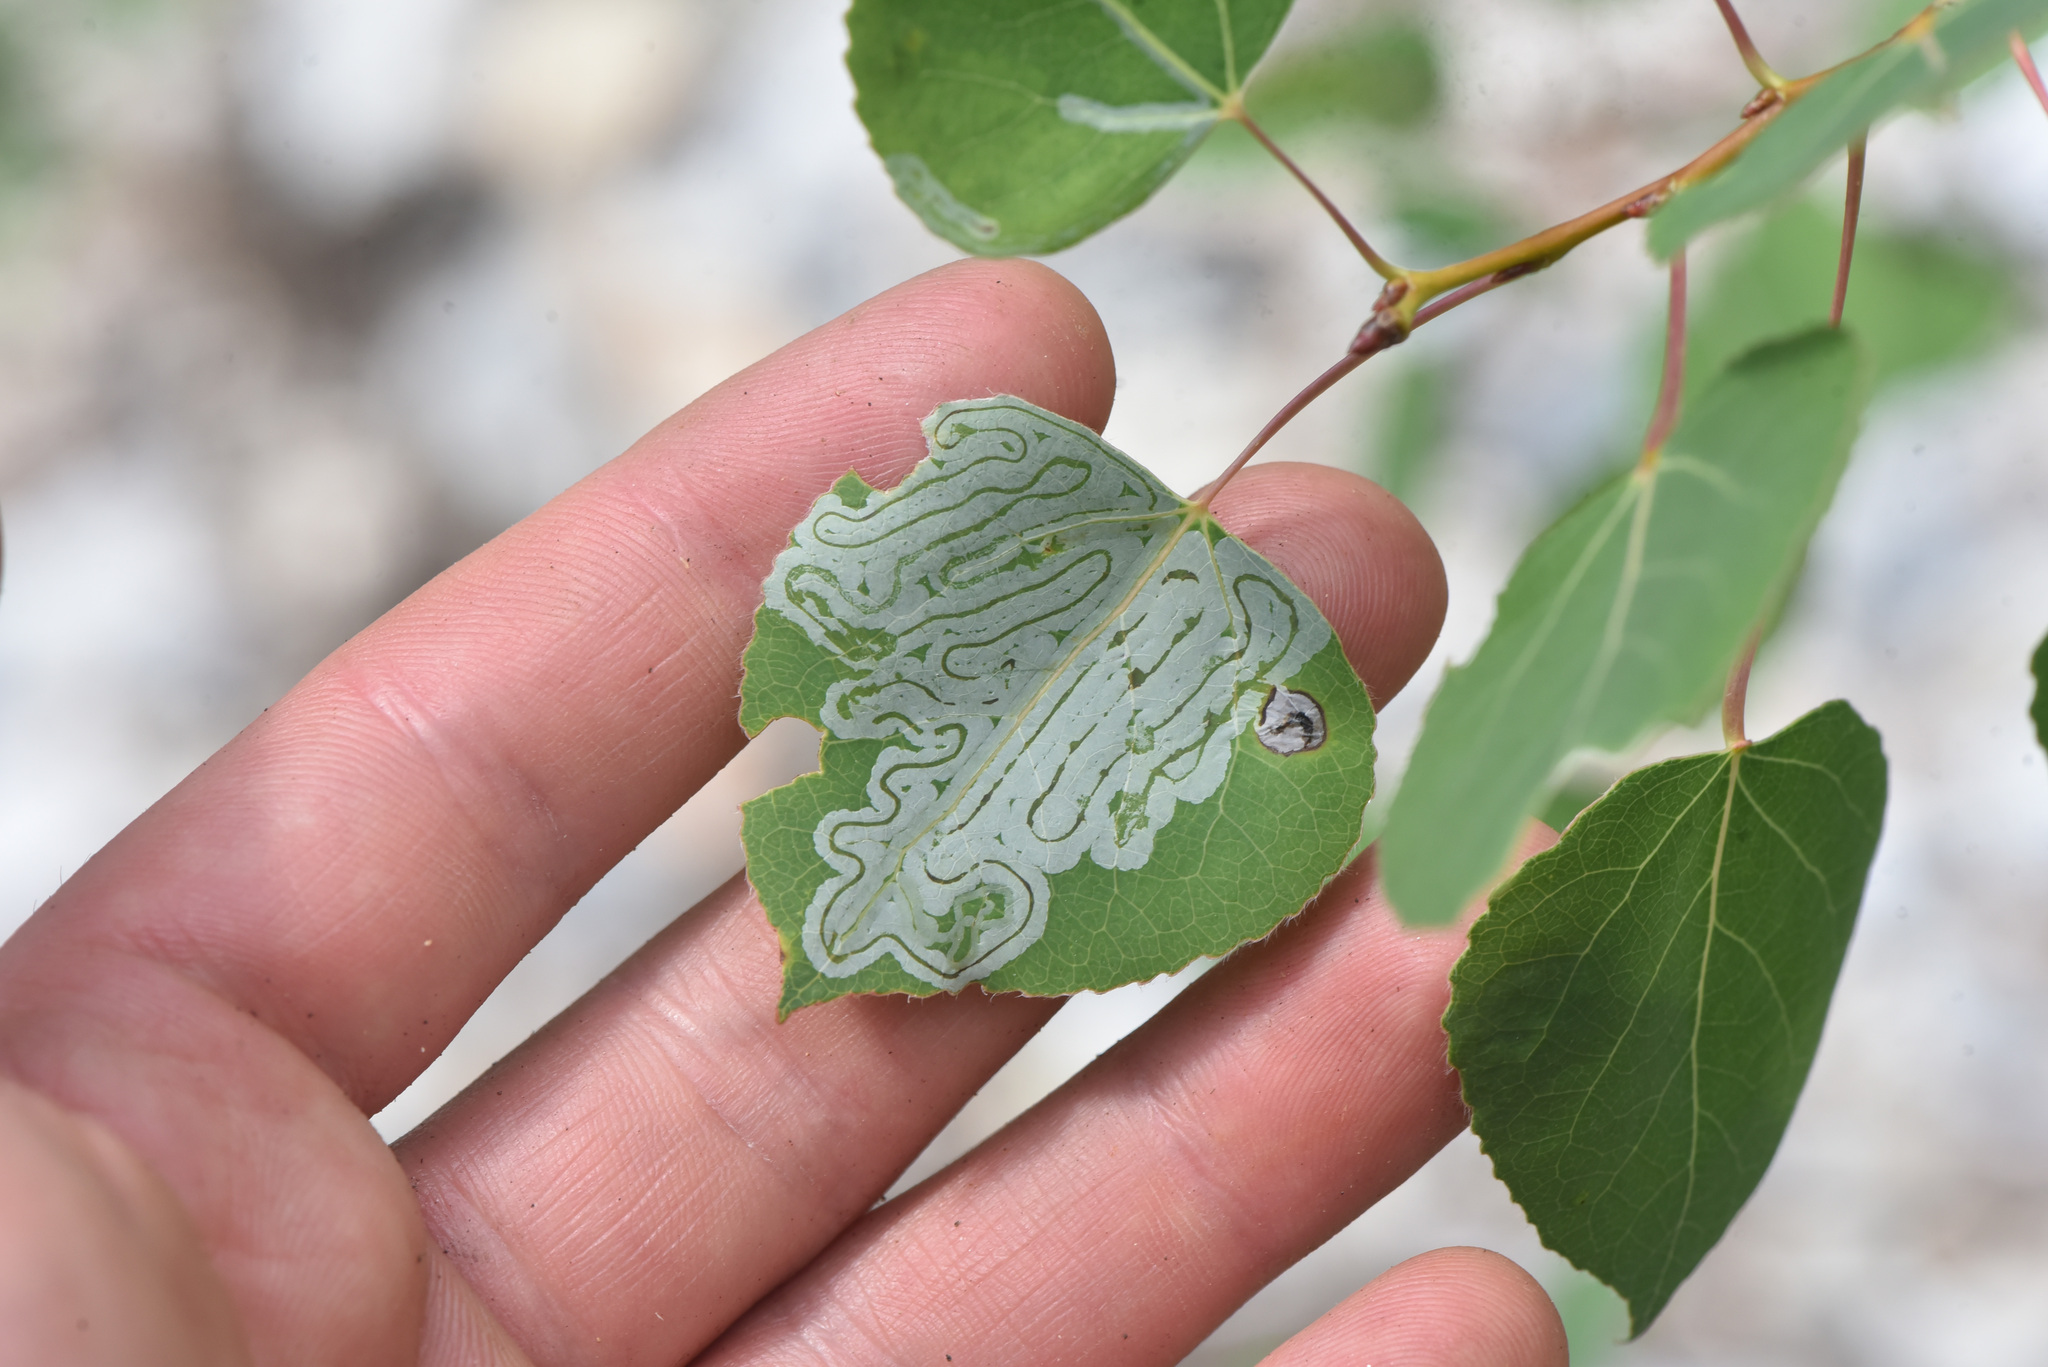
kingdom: Animalia
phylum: Arthropoda
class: Insecta
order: Lepidoptera
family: Gracillariidae
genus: Phyllocnistis
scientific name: Phyllocnistis populiella
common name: Aspen serpentine leafminer moth
